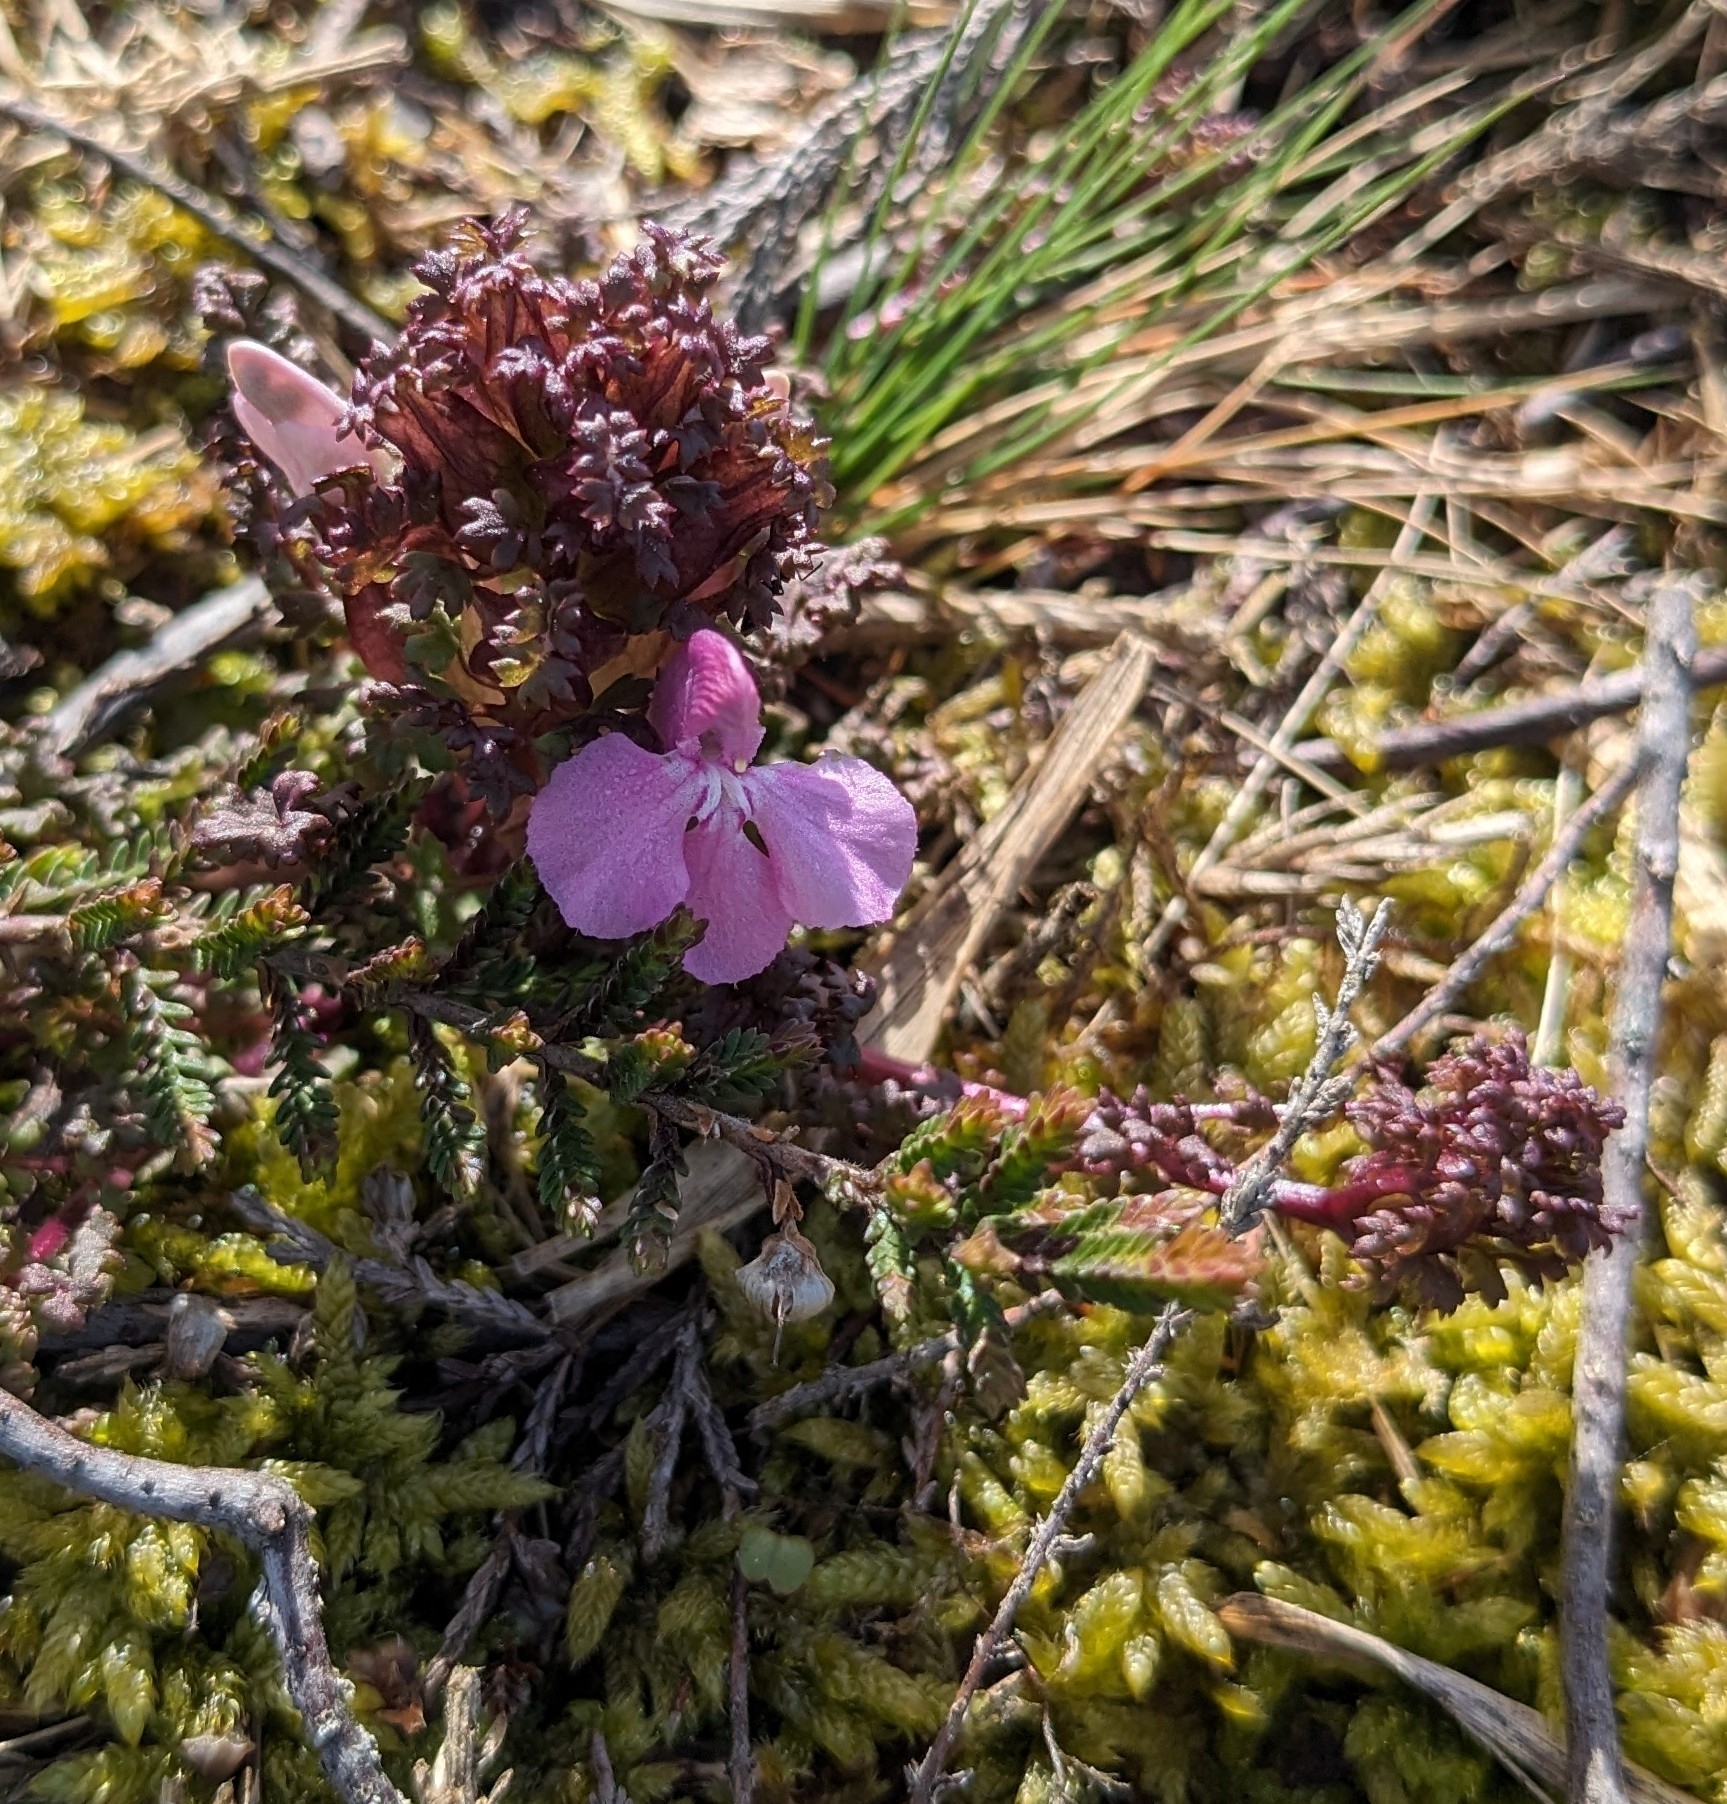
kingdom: Plantae
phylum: Tracheophyta
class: Magnoliopsida
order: Lamiales
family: Orobanchaceae
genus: Pedicularis
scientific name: Pedicularis sylvatica
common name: Lousewort
